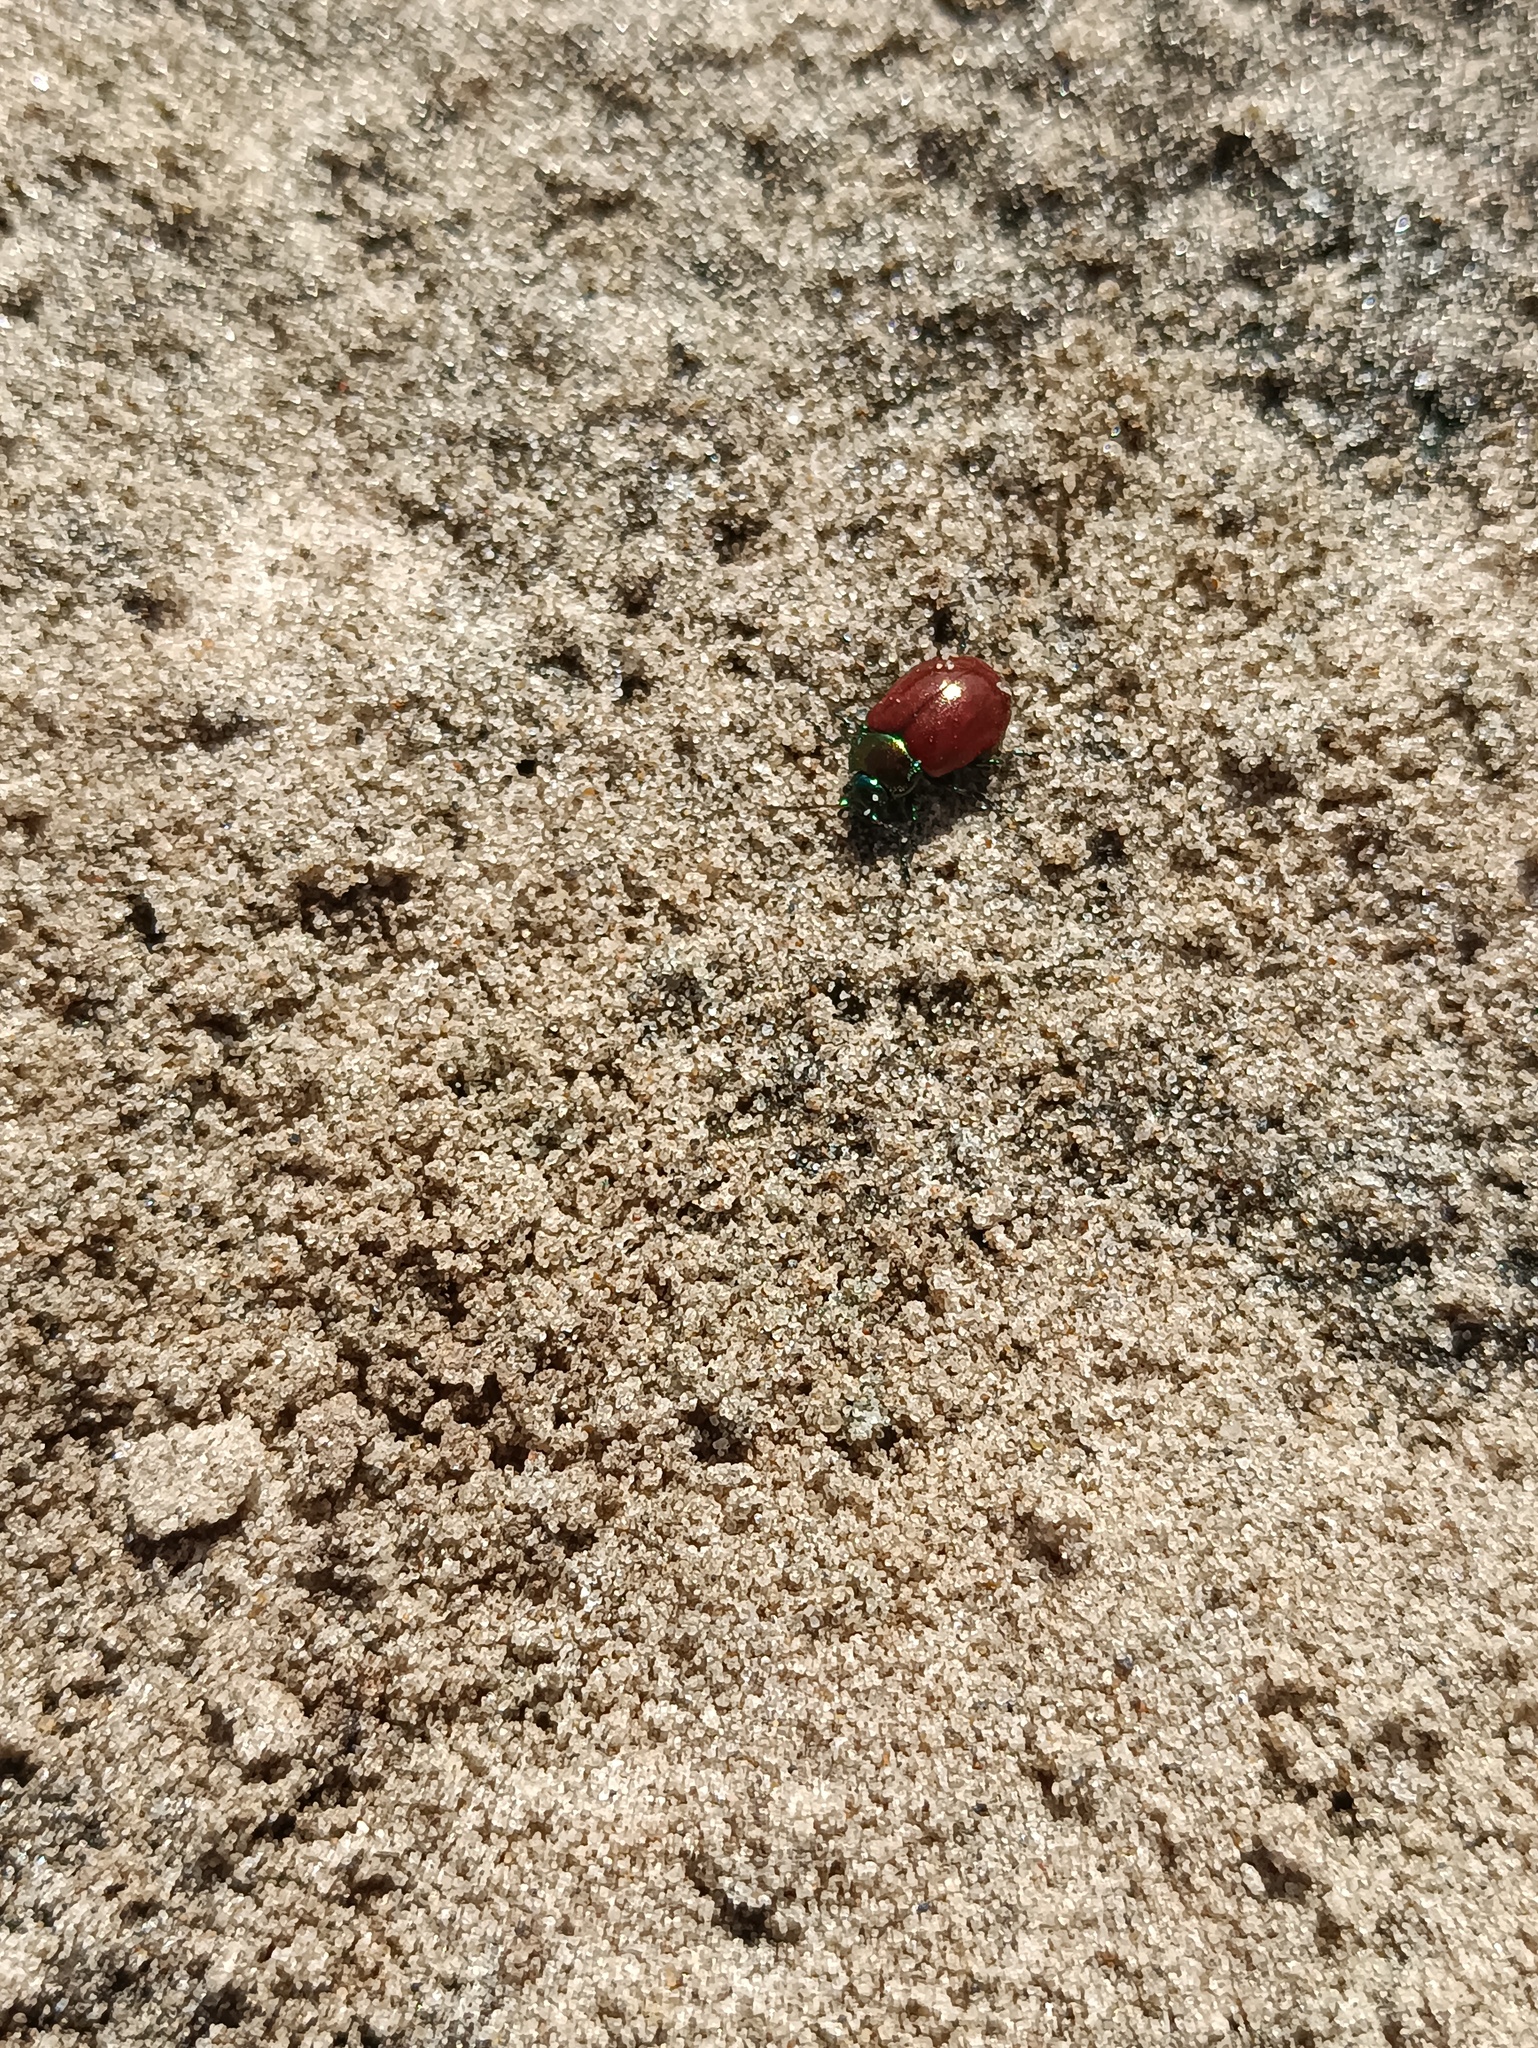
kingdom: Animalia
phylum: Arthropoda
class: Insecta
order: Coleoptera
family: Chrysomelidae
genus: Chrysomela
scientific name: Chrysomela polita
